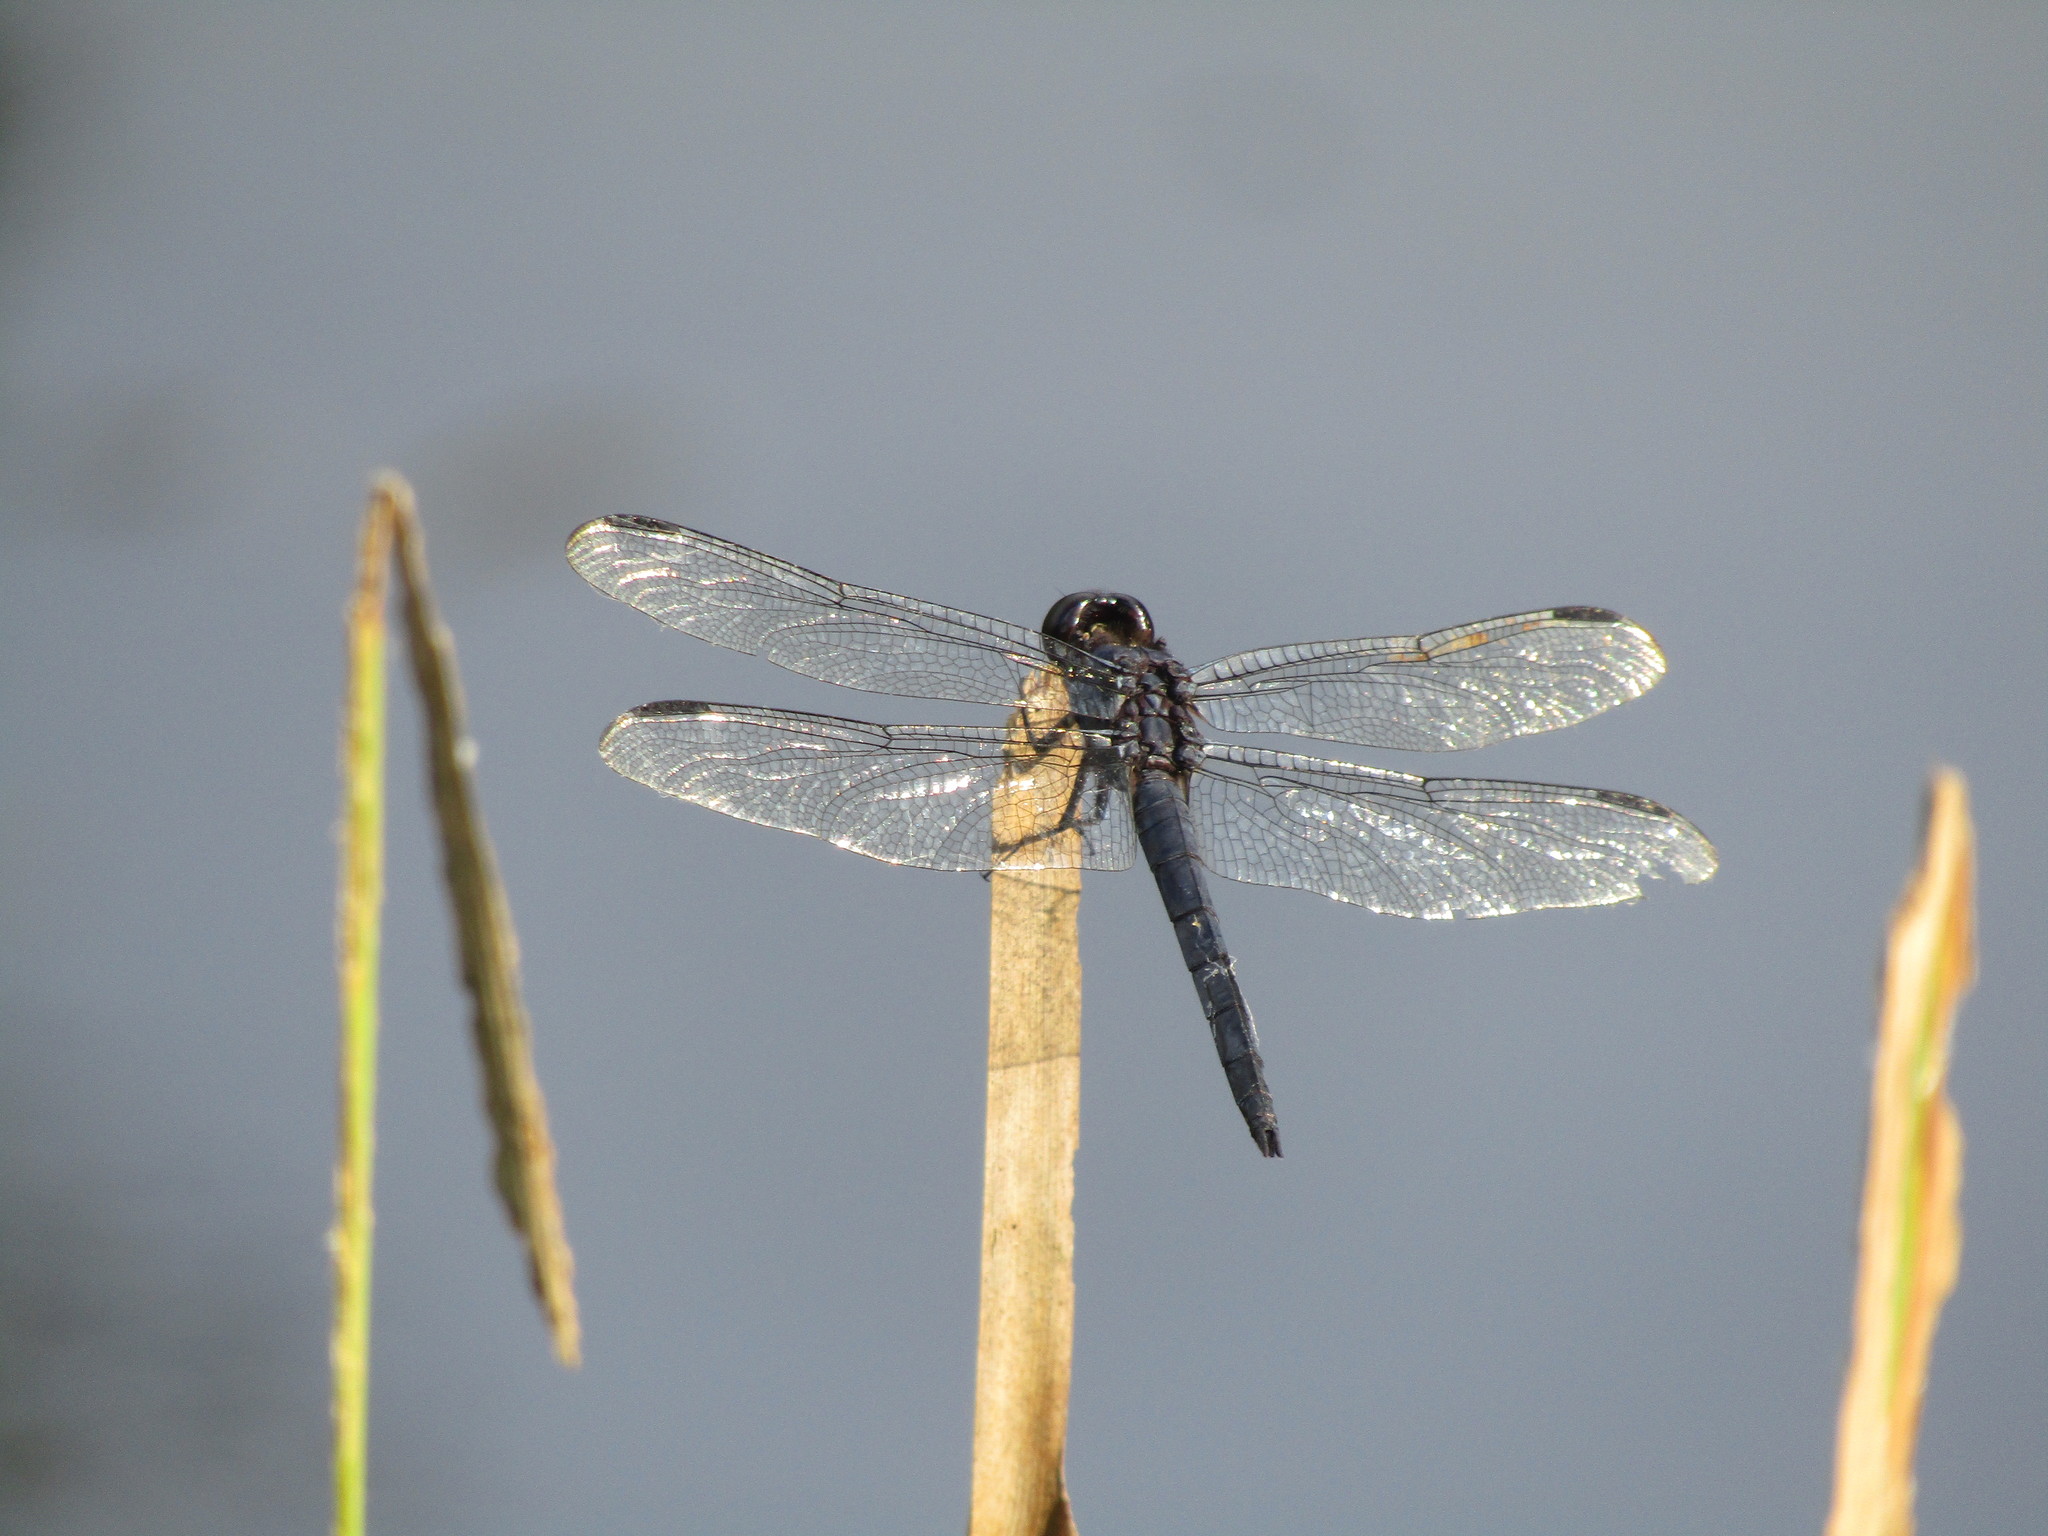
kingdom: Animalia
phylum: Arthropoda
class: Insecta
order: Odonata
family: Libellulidae
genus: Libellula
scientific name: Libellula incesta
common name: Slaty skimmer
